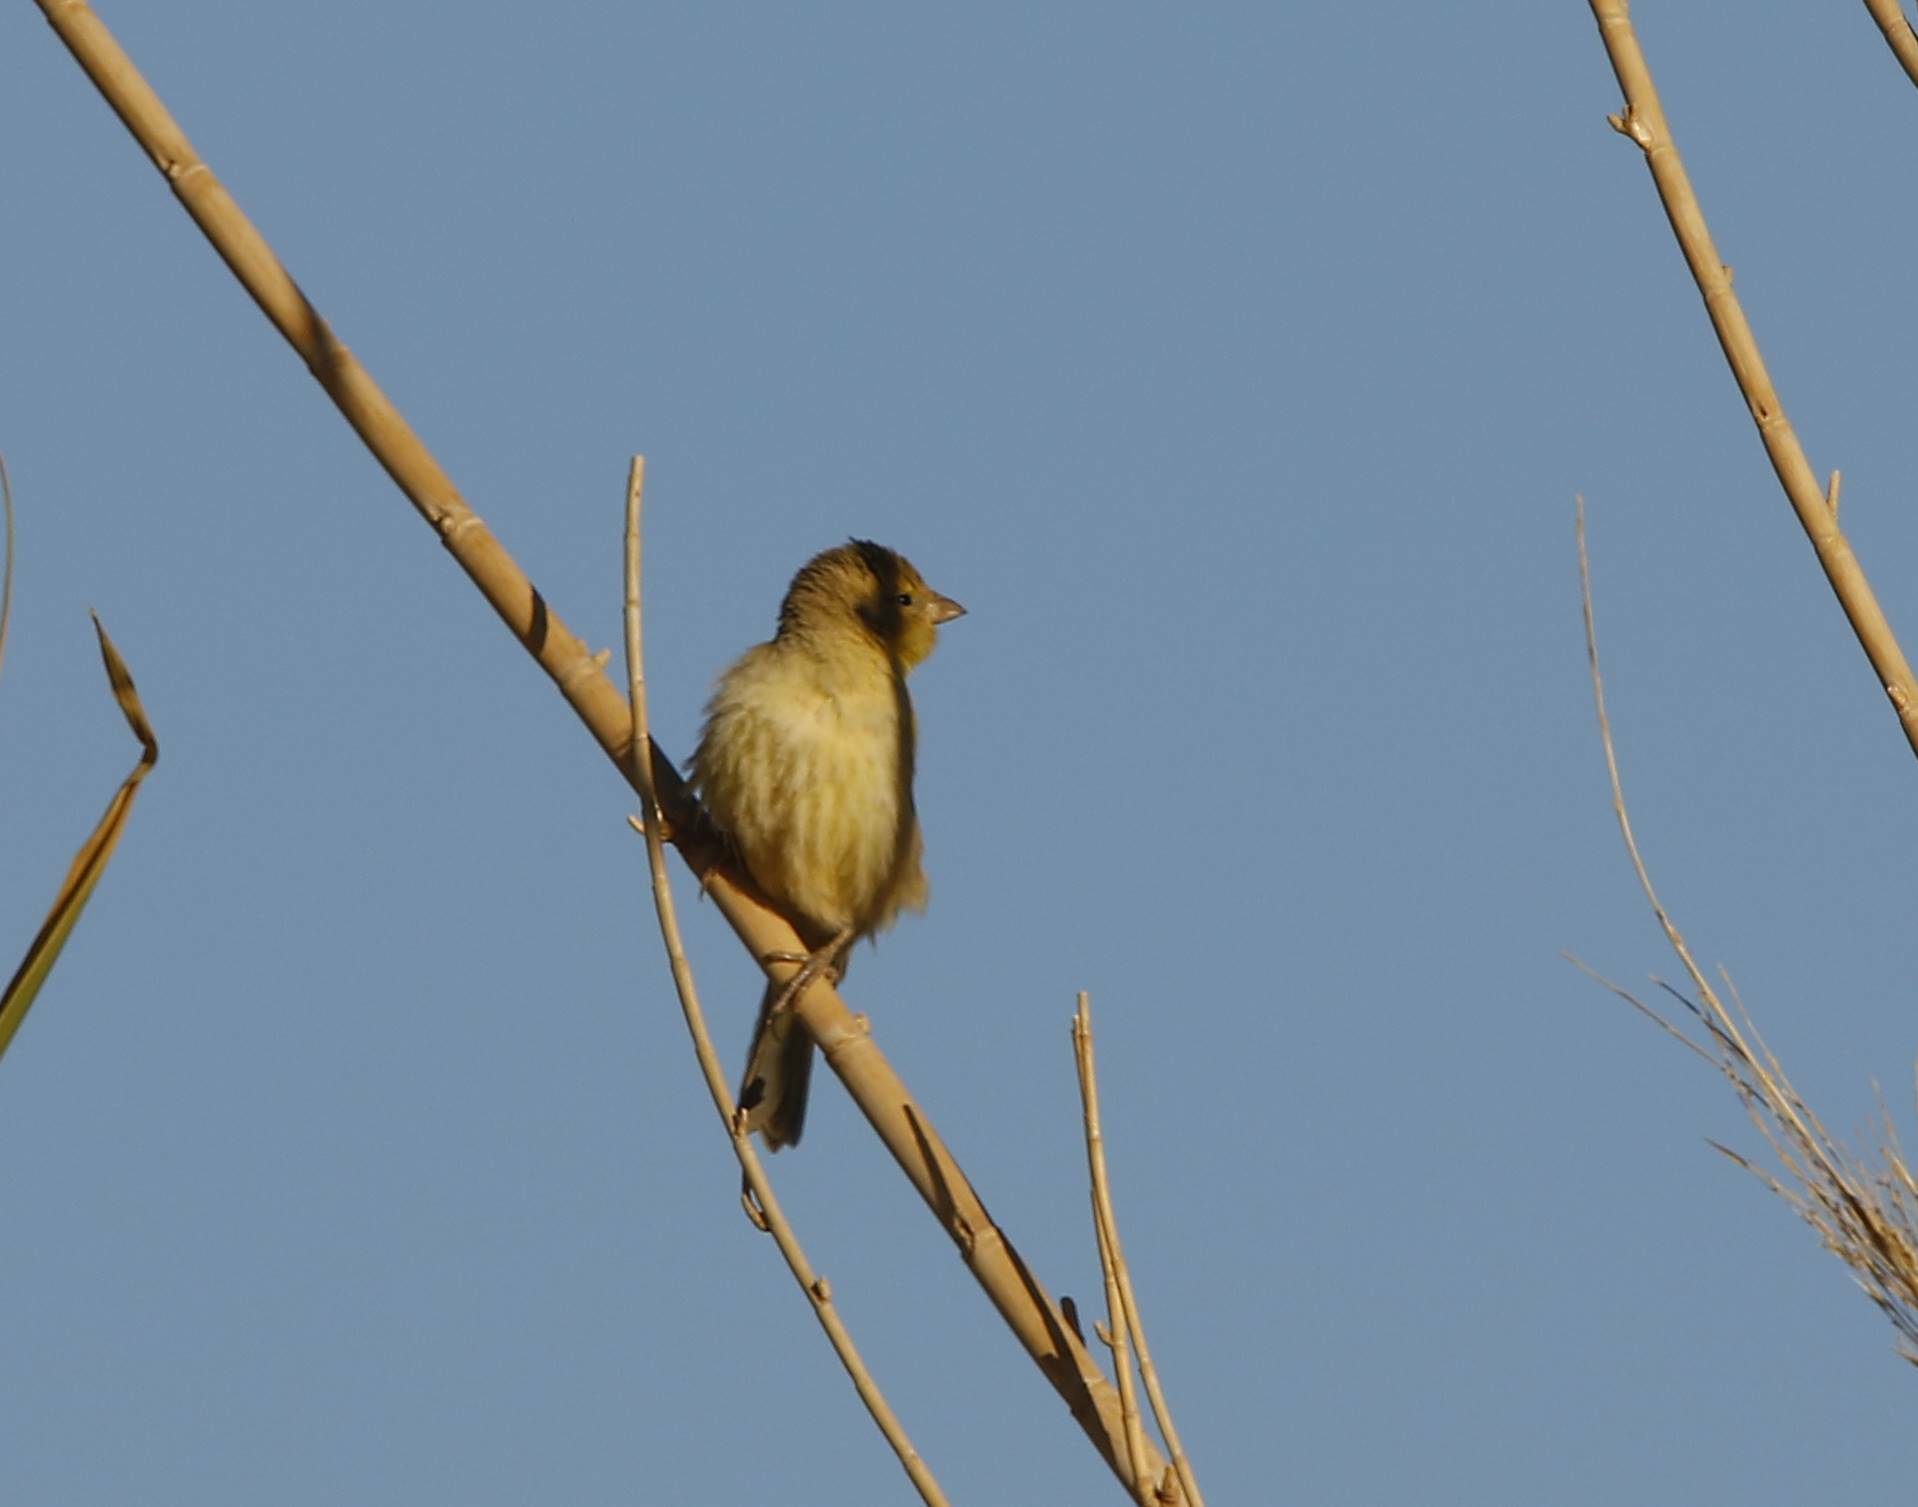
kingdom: Animalia
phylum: Chordata
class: Aves
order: Passeriformes
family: Passeridae
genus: Passer
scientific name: Passer luteus
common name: Sudan golden sparrow
